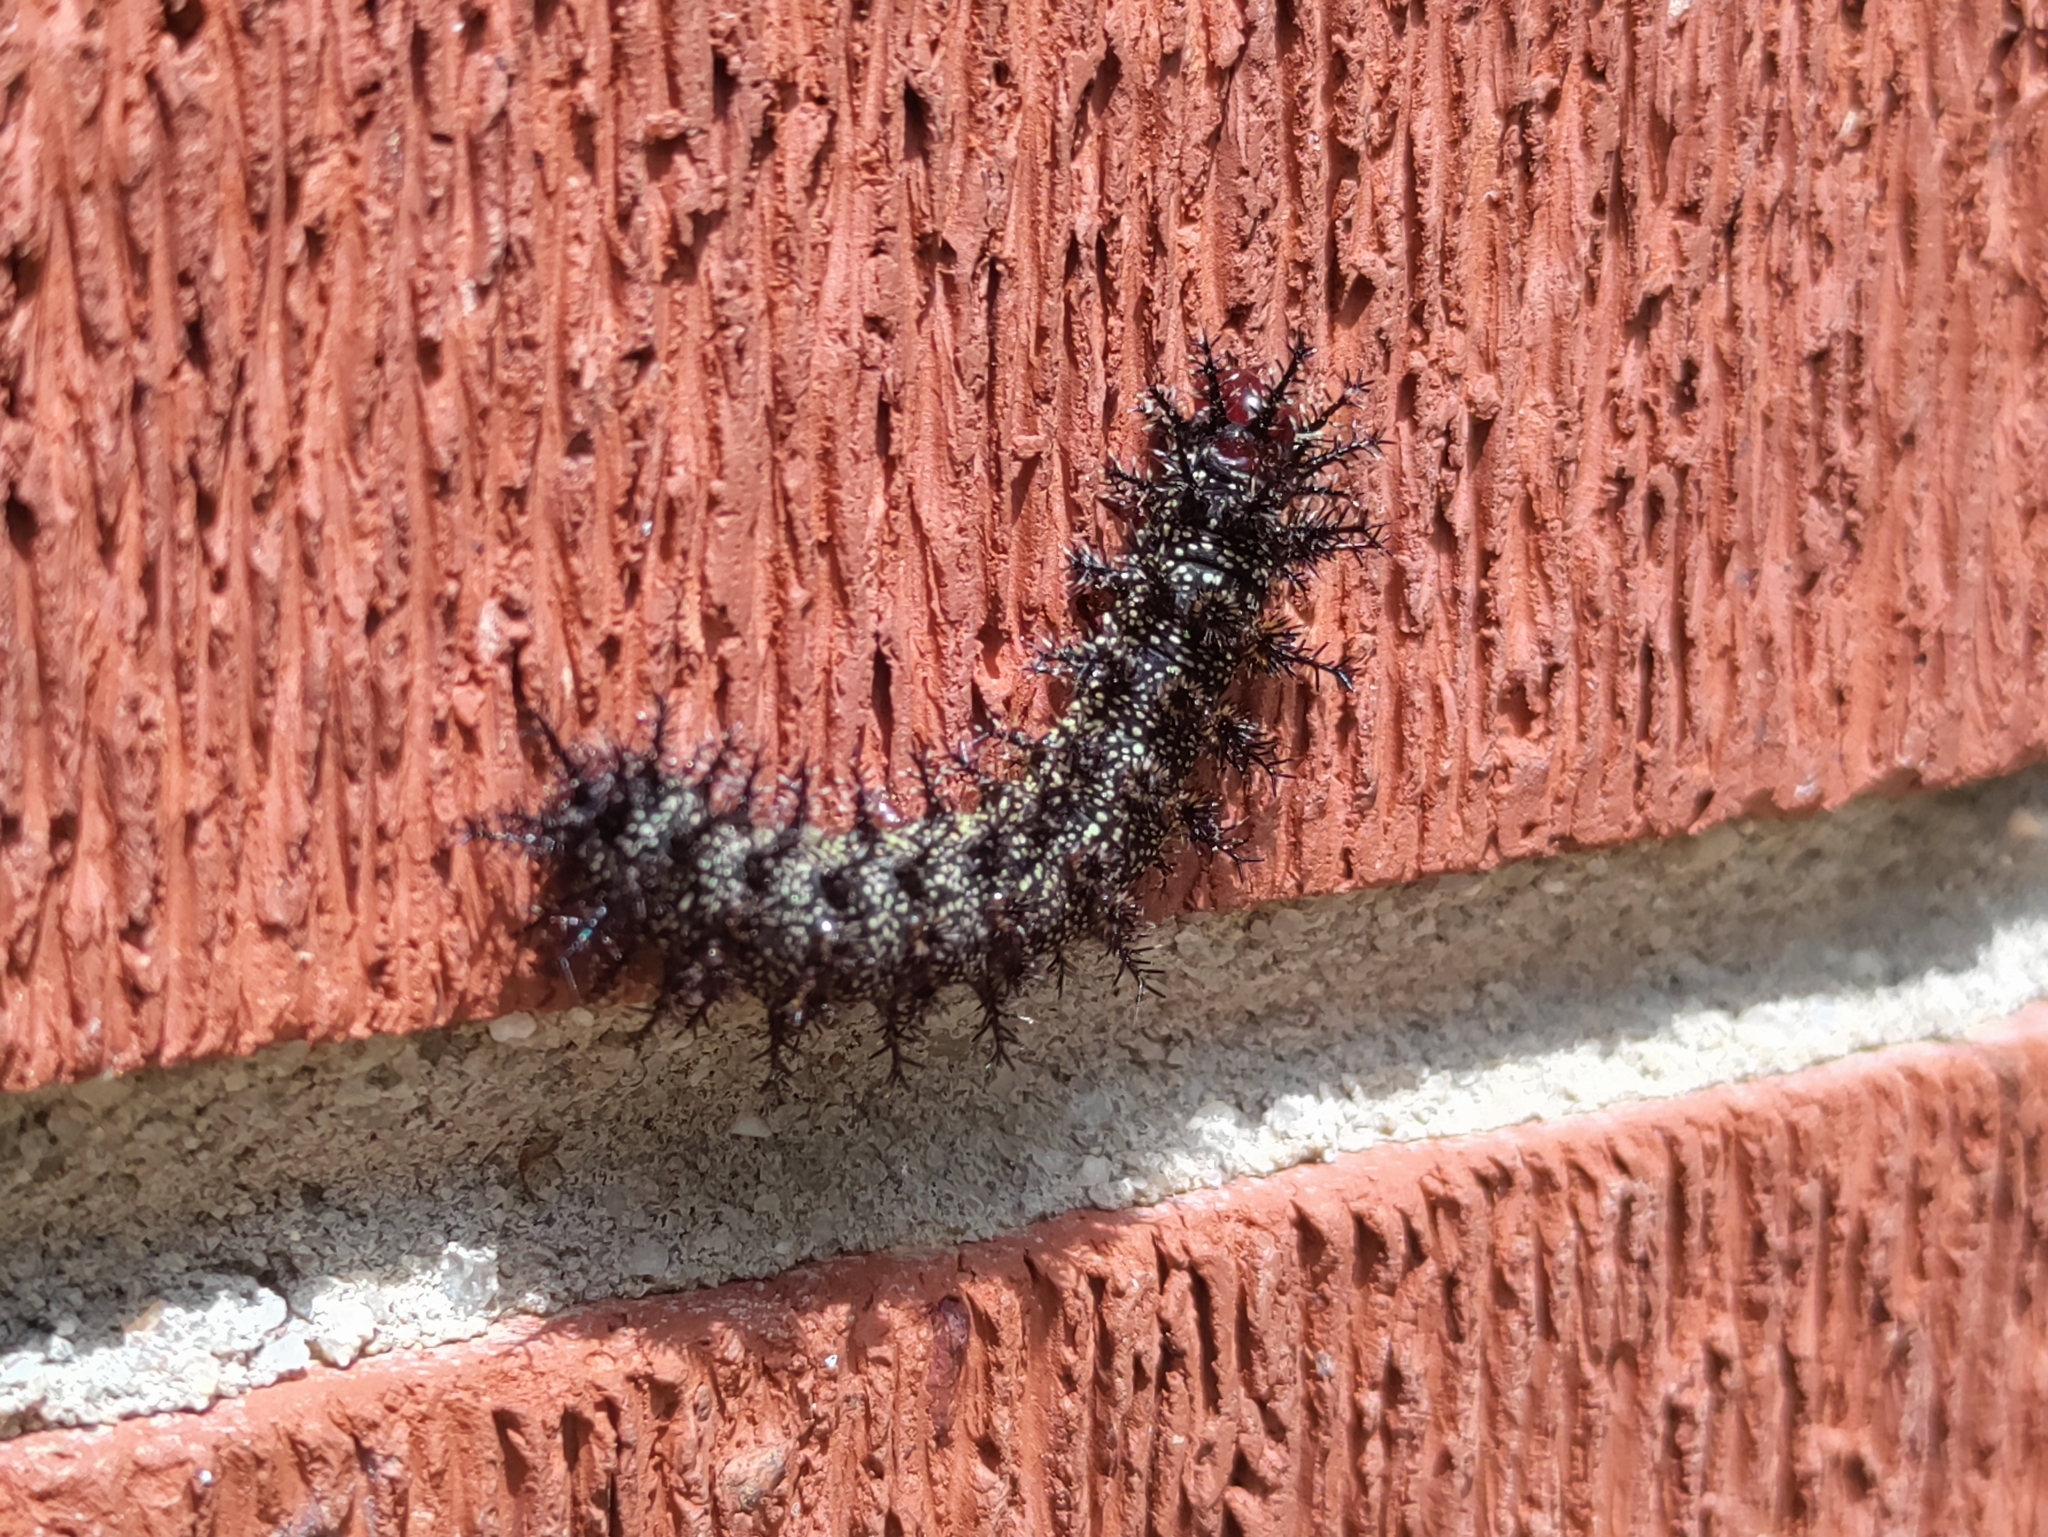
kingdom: Animalia
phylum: Arthropoda
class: Insecta
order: Lepidoptera
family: Saturniidae
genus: Hemileuca
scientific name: Hemileuca maia
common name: Eastern buckmoth
